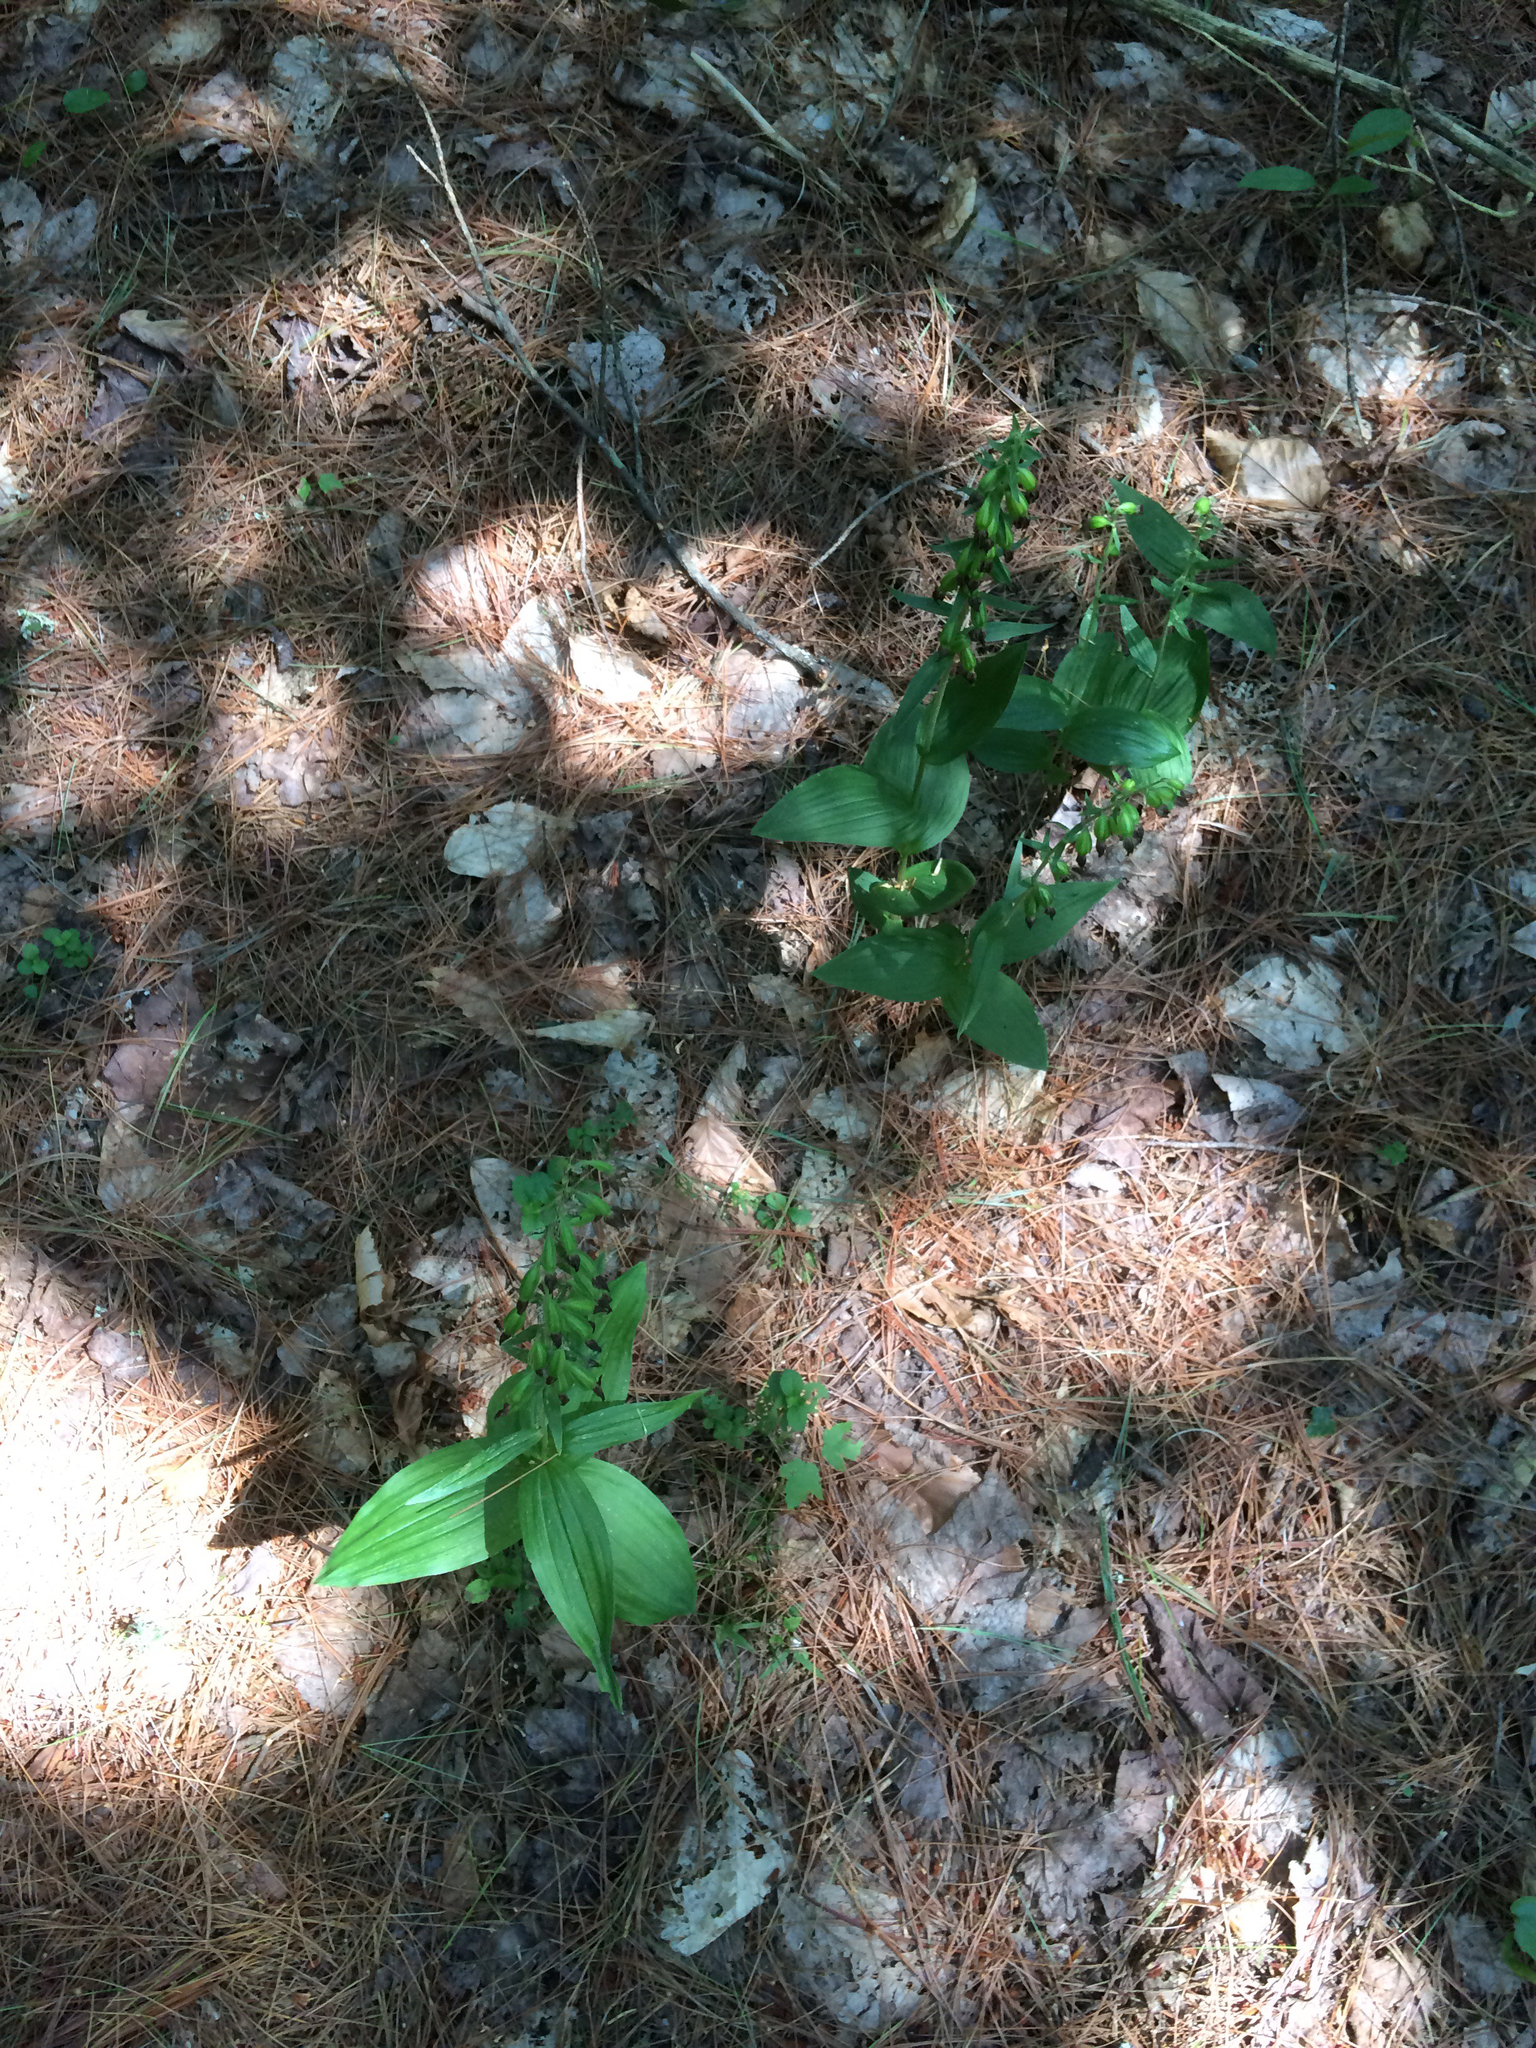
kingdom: Plantae
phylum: Tracheophyta
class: Liliopsida
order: Asparagales
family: Orchidaceae
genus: Epipactis
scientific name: Epipactis helleborine
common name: Broad-leaved helleborine
